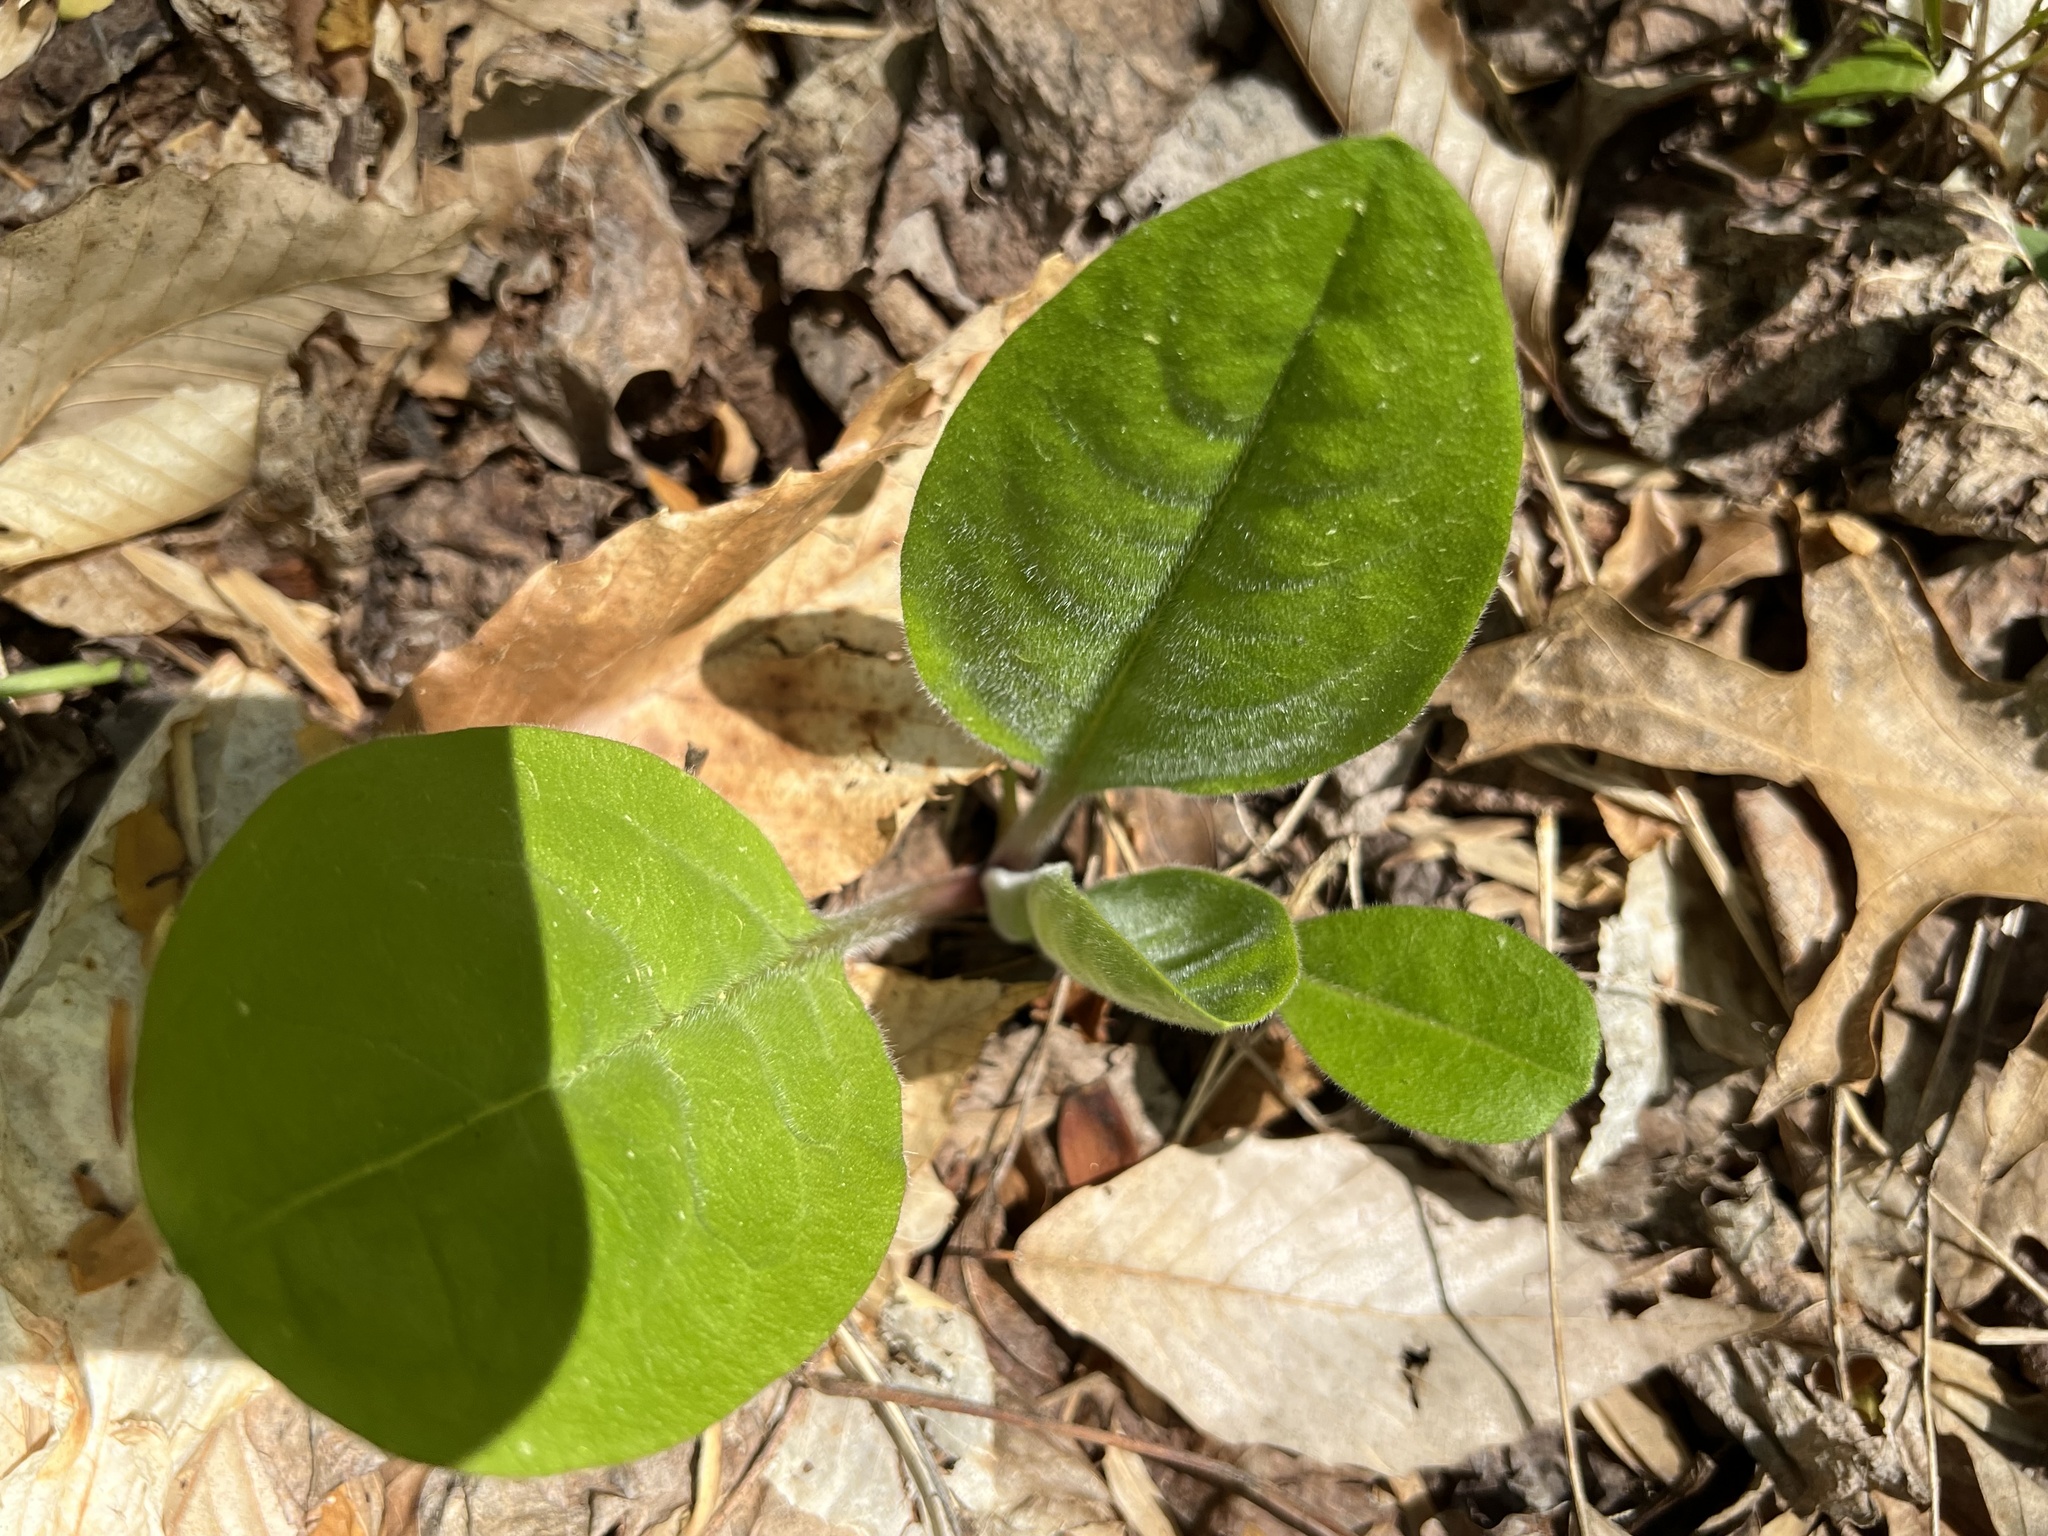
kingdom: Plantae
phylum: Tracheophyta
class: Magnoliopsida
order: Boraginales
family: Boraginaceae
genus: Andersonglossum
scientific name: Andersonglossum virginianum
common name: Wild comfrey
